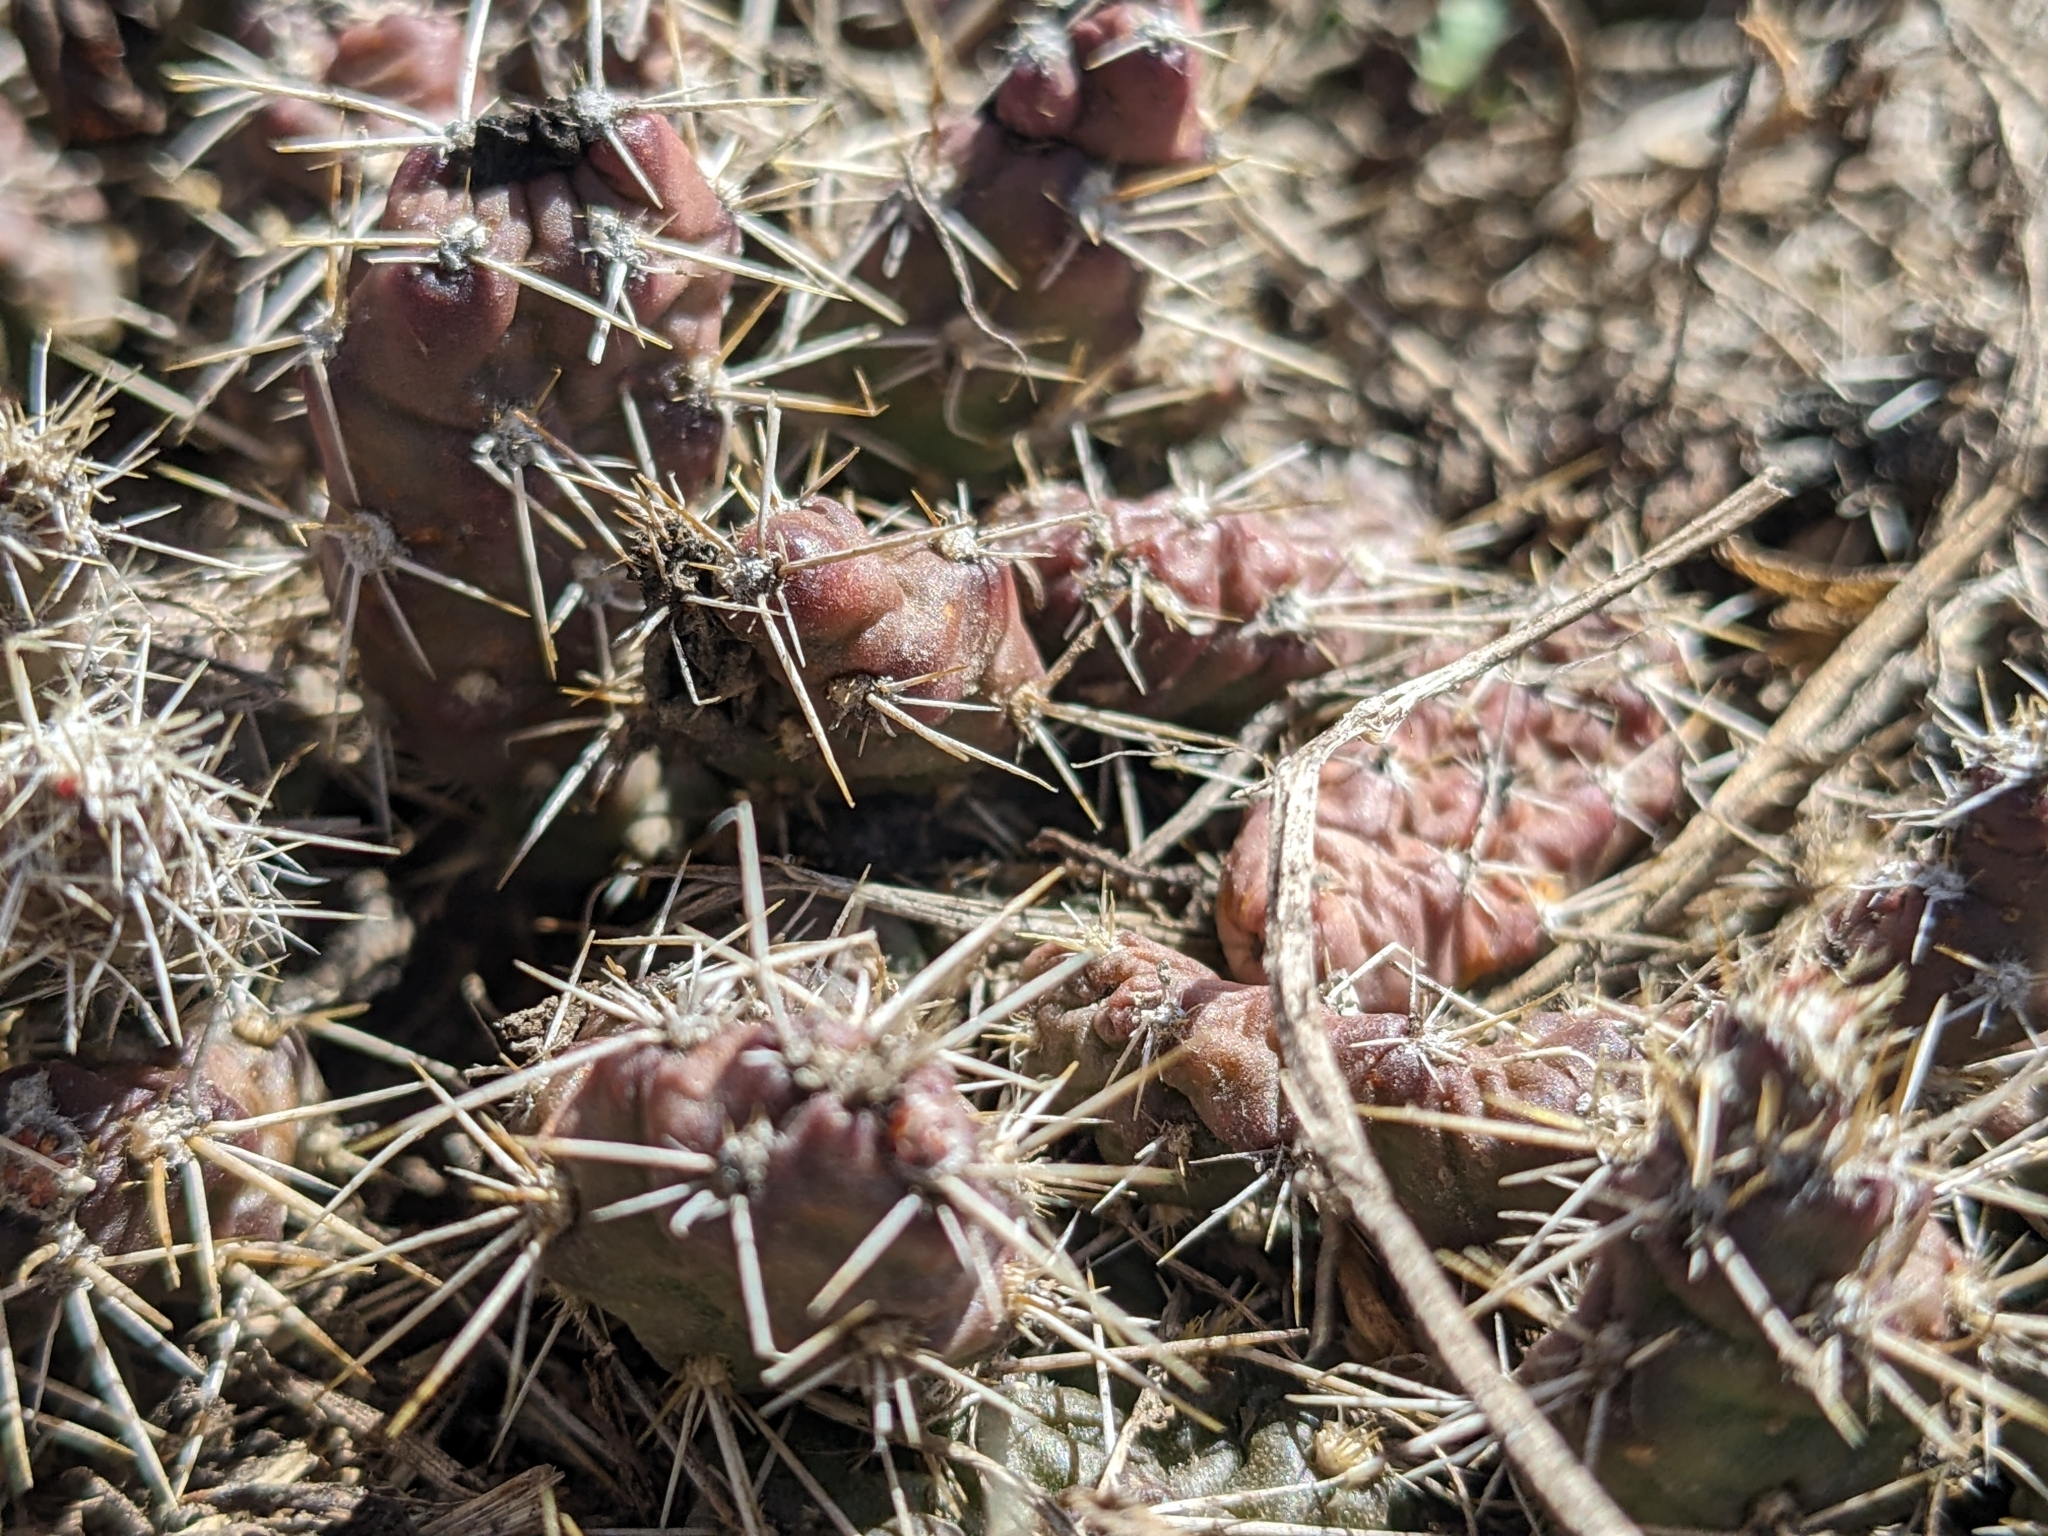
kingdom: Plantae
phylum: Tracheophyta
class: Magnoliopsida
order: Caryophyllales
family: Cactaceae
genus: Opuntia
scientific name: Opuntia fragilis
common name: Brittle cactus
